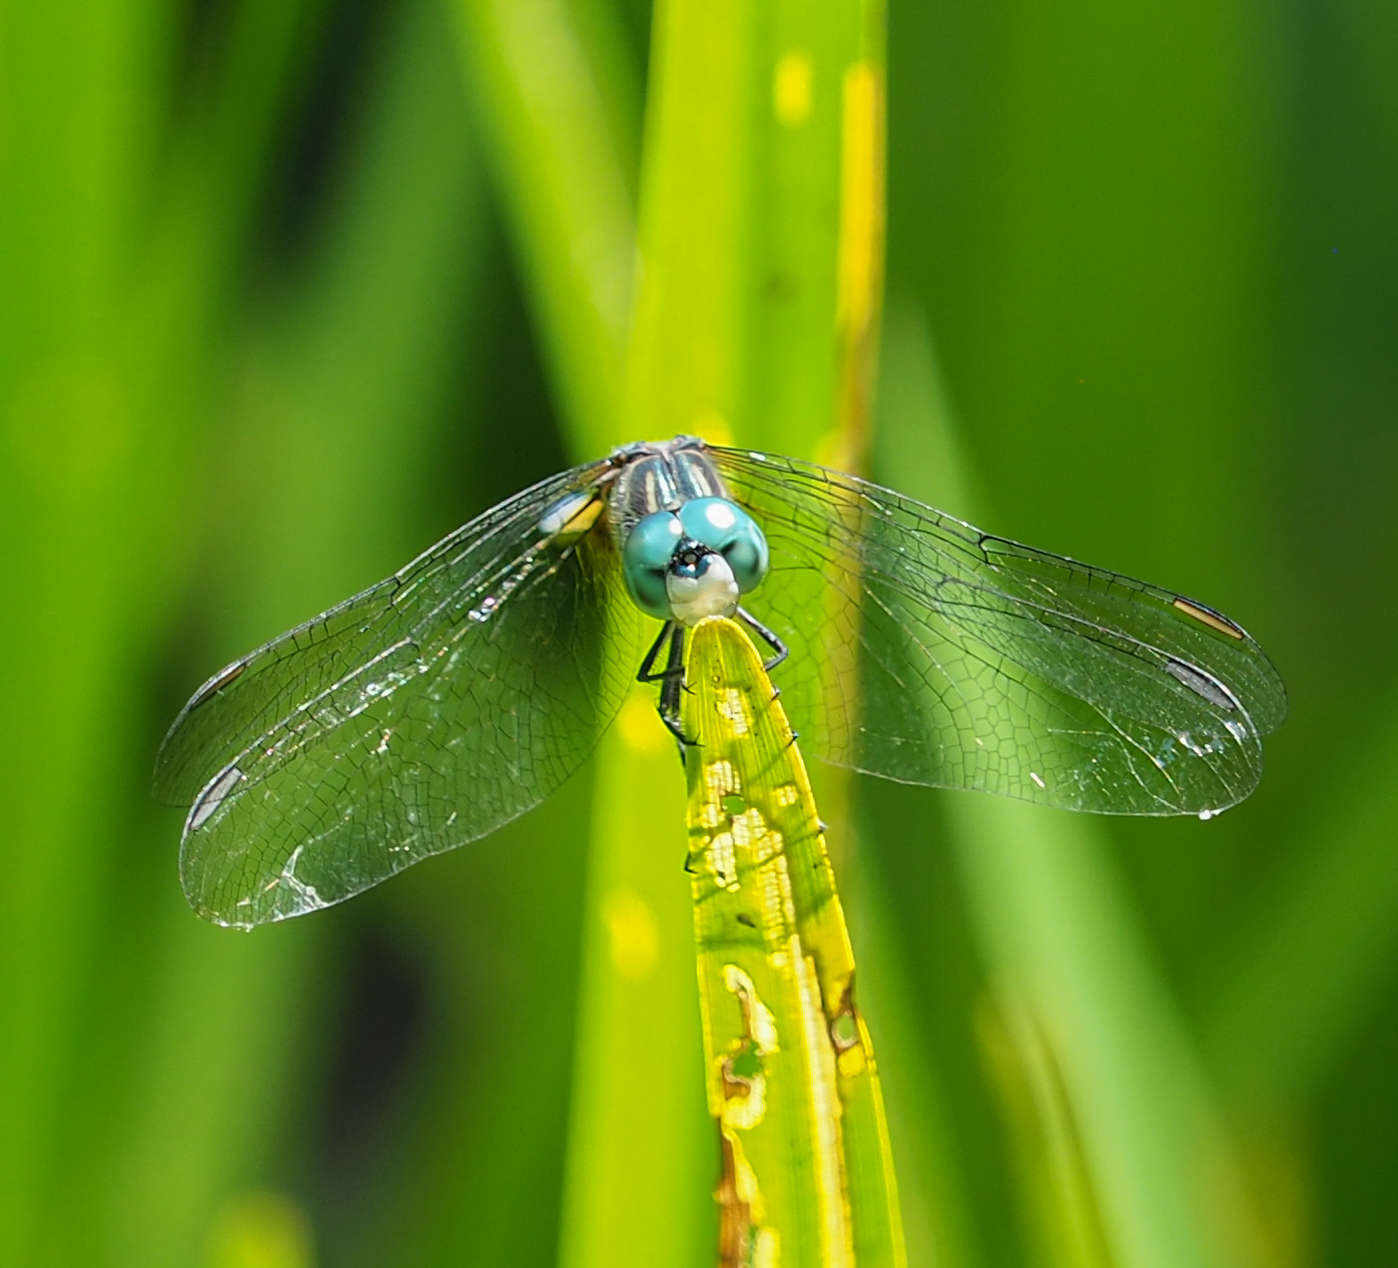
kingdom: Animalia
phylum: Arthropoda
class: Insecta
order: Odonata
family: Libellulidae
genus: Pachydiplax
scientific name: Pachydiplax longipennis
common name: Blue dasher
